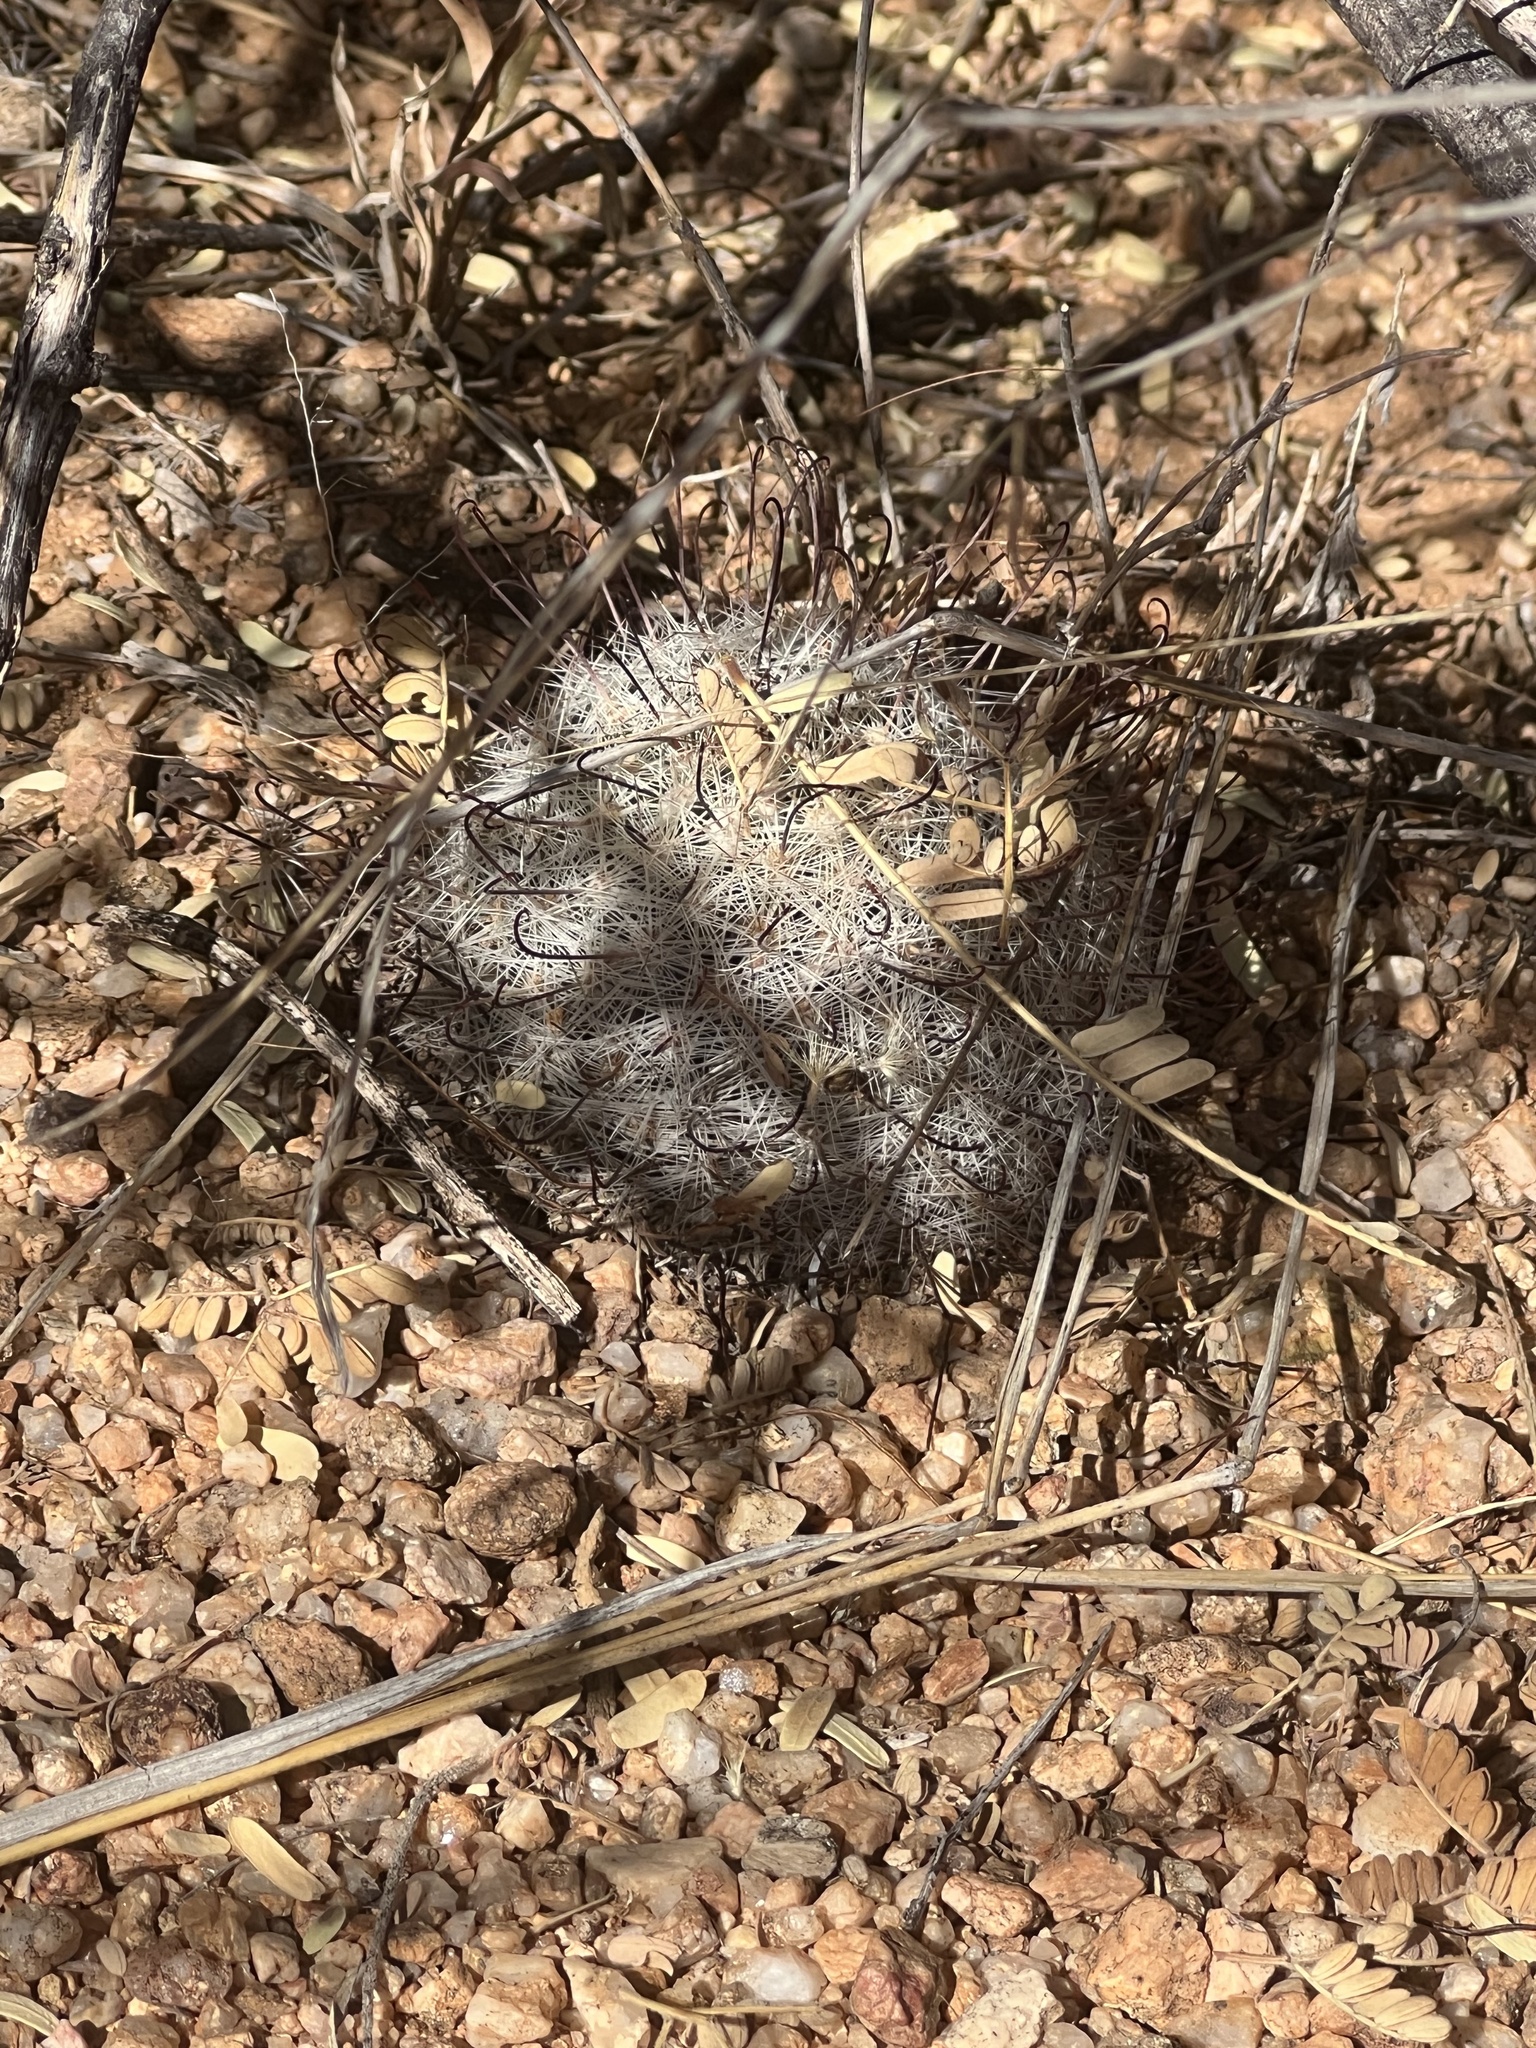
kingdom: Plantae
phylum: Tracheophyta
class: Magnoliopsida
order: Caryophyllales
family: Cactaceae
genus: Cochemiea
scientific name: Cochemiea grahamii
